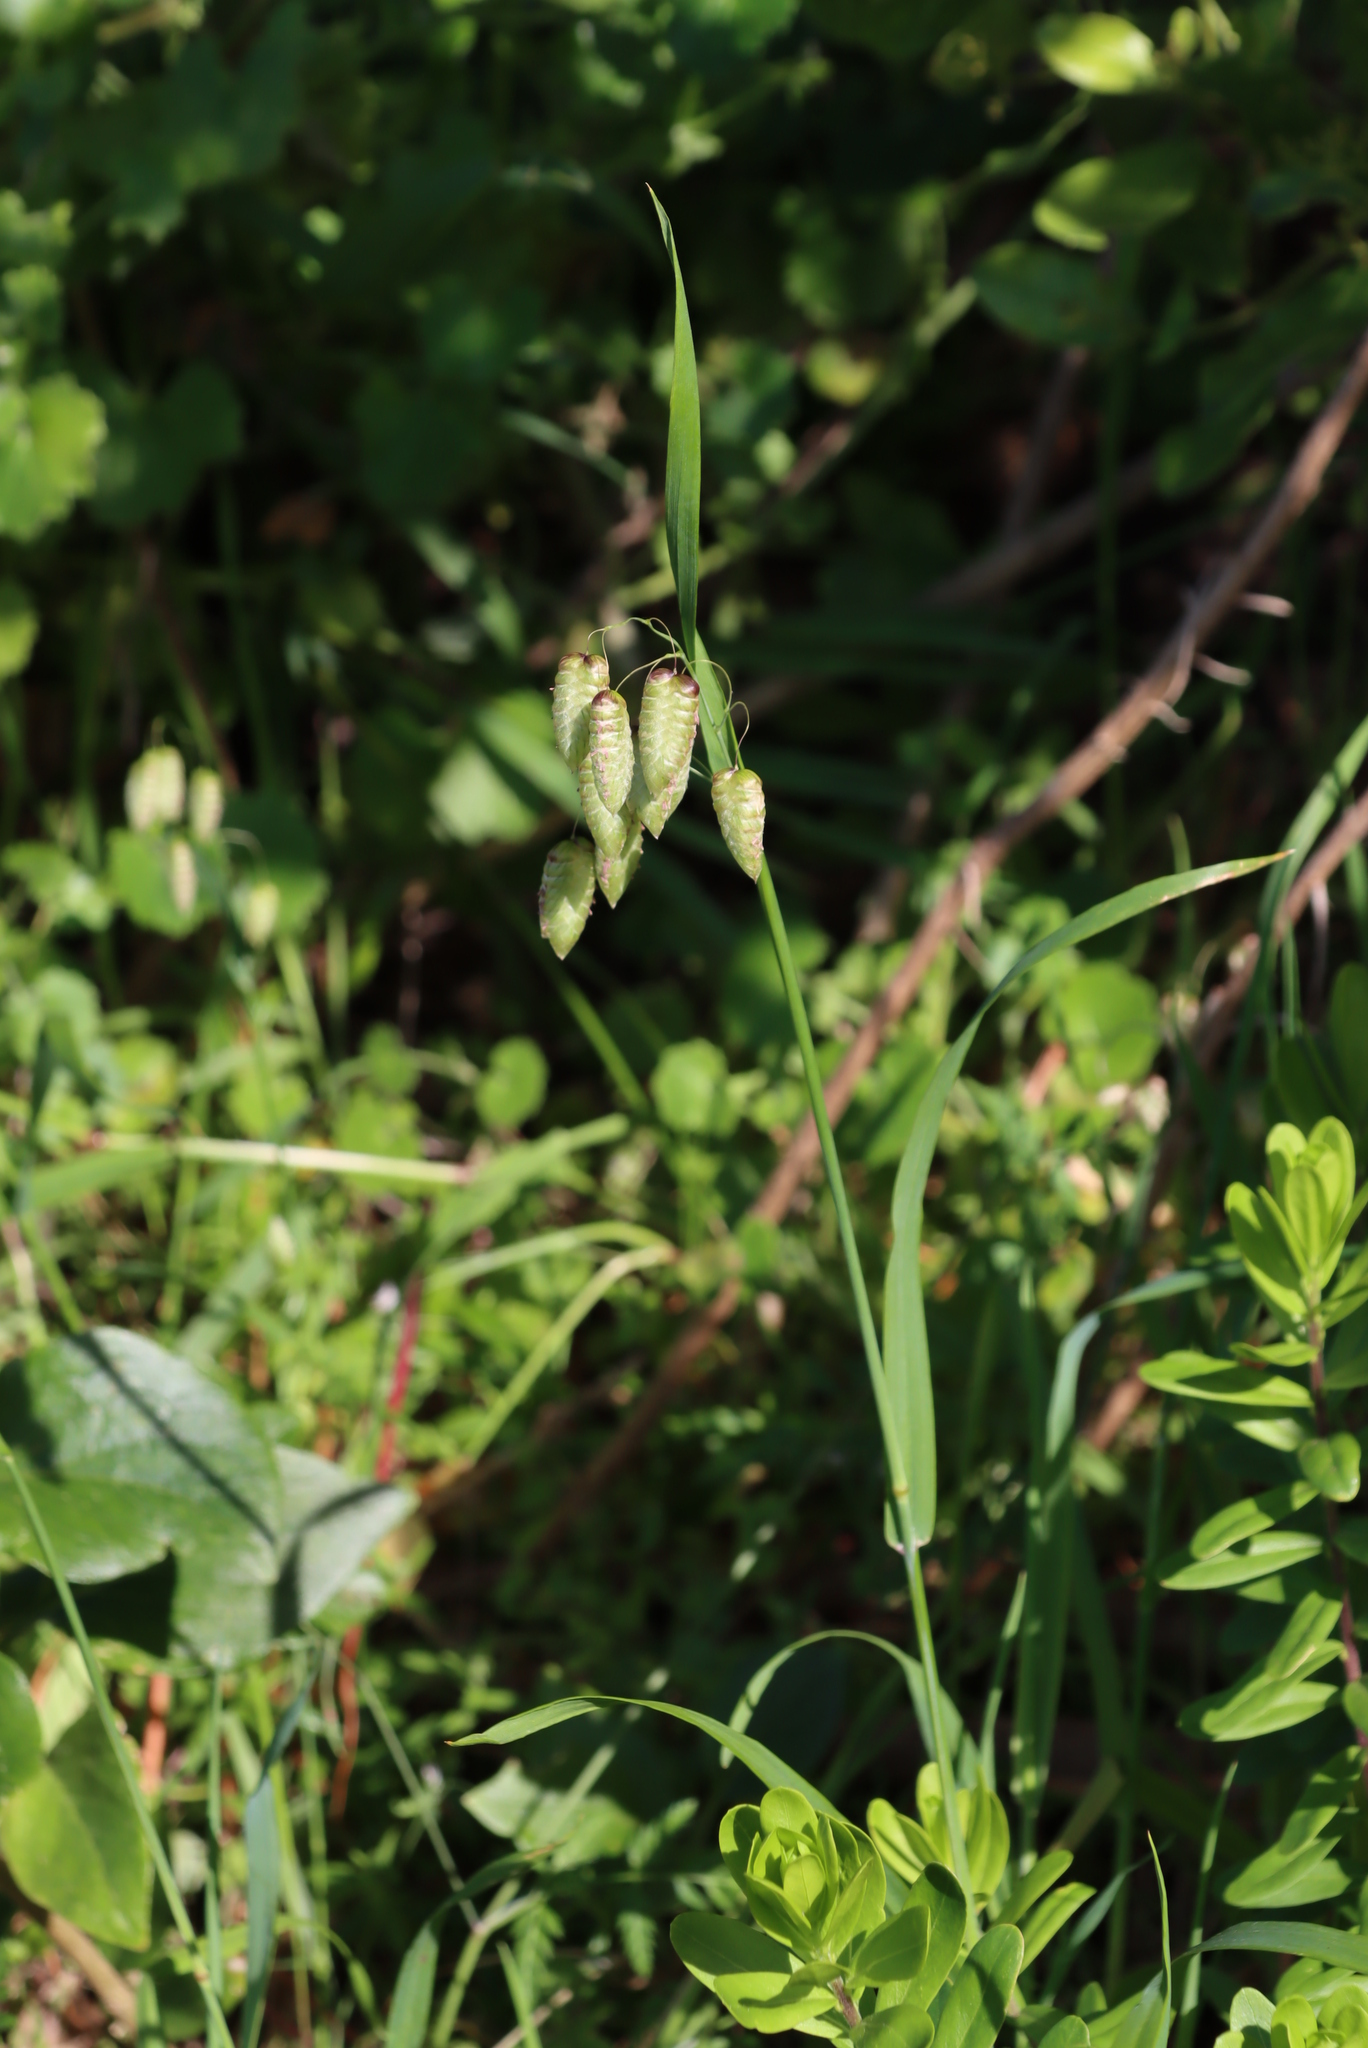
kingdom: Plantae
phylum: Tracheophyta
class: Liliopsida
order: Poales
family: Poaceae
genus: Briza
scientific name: Briza maxima
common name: Big quakinggrass
